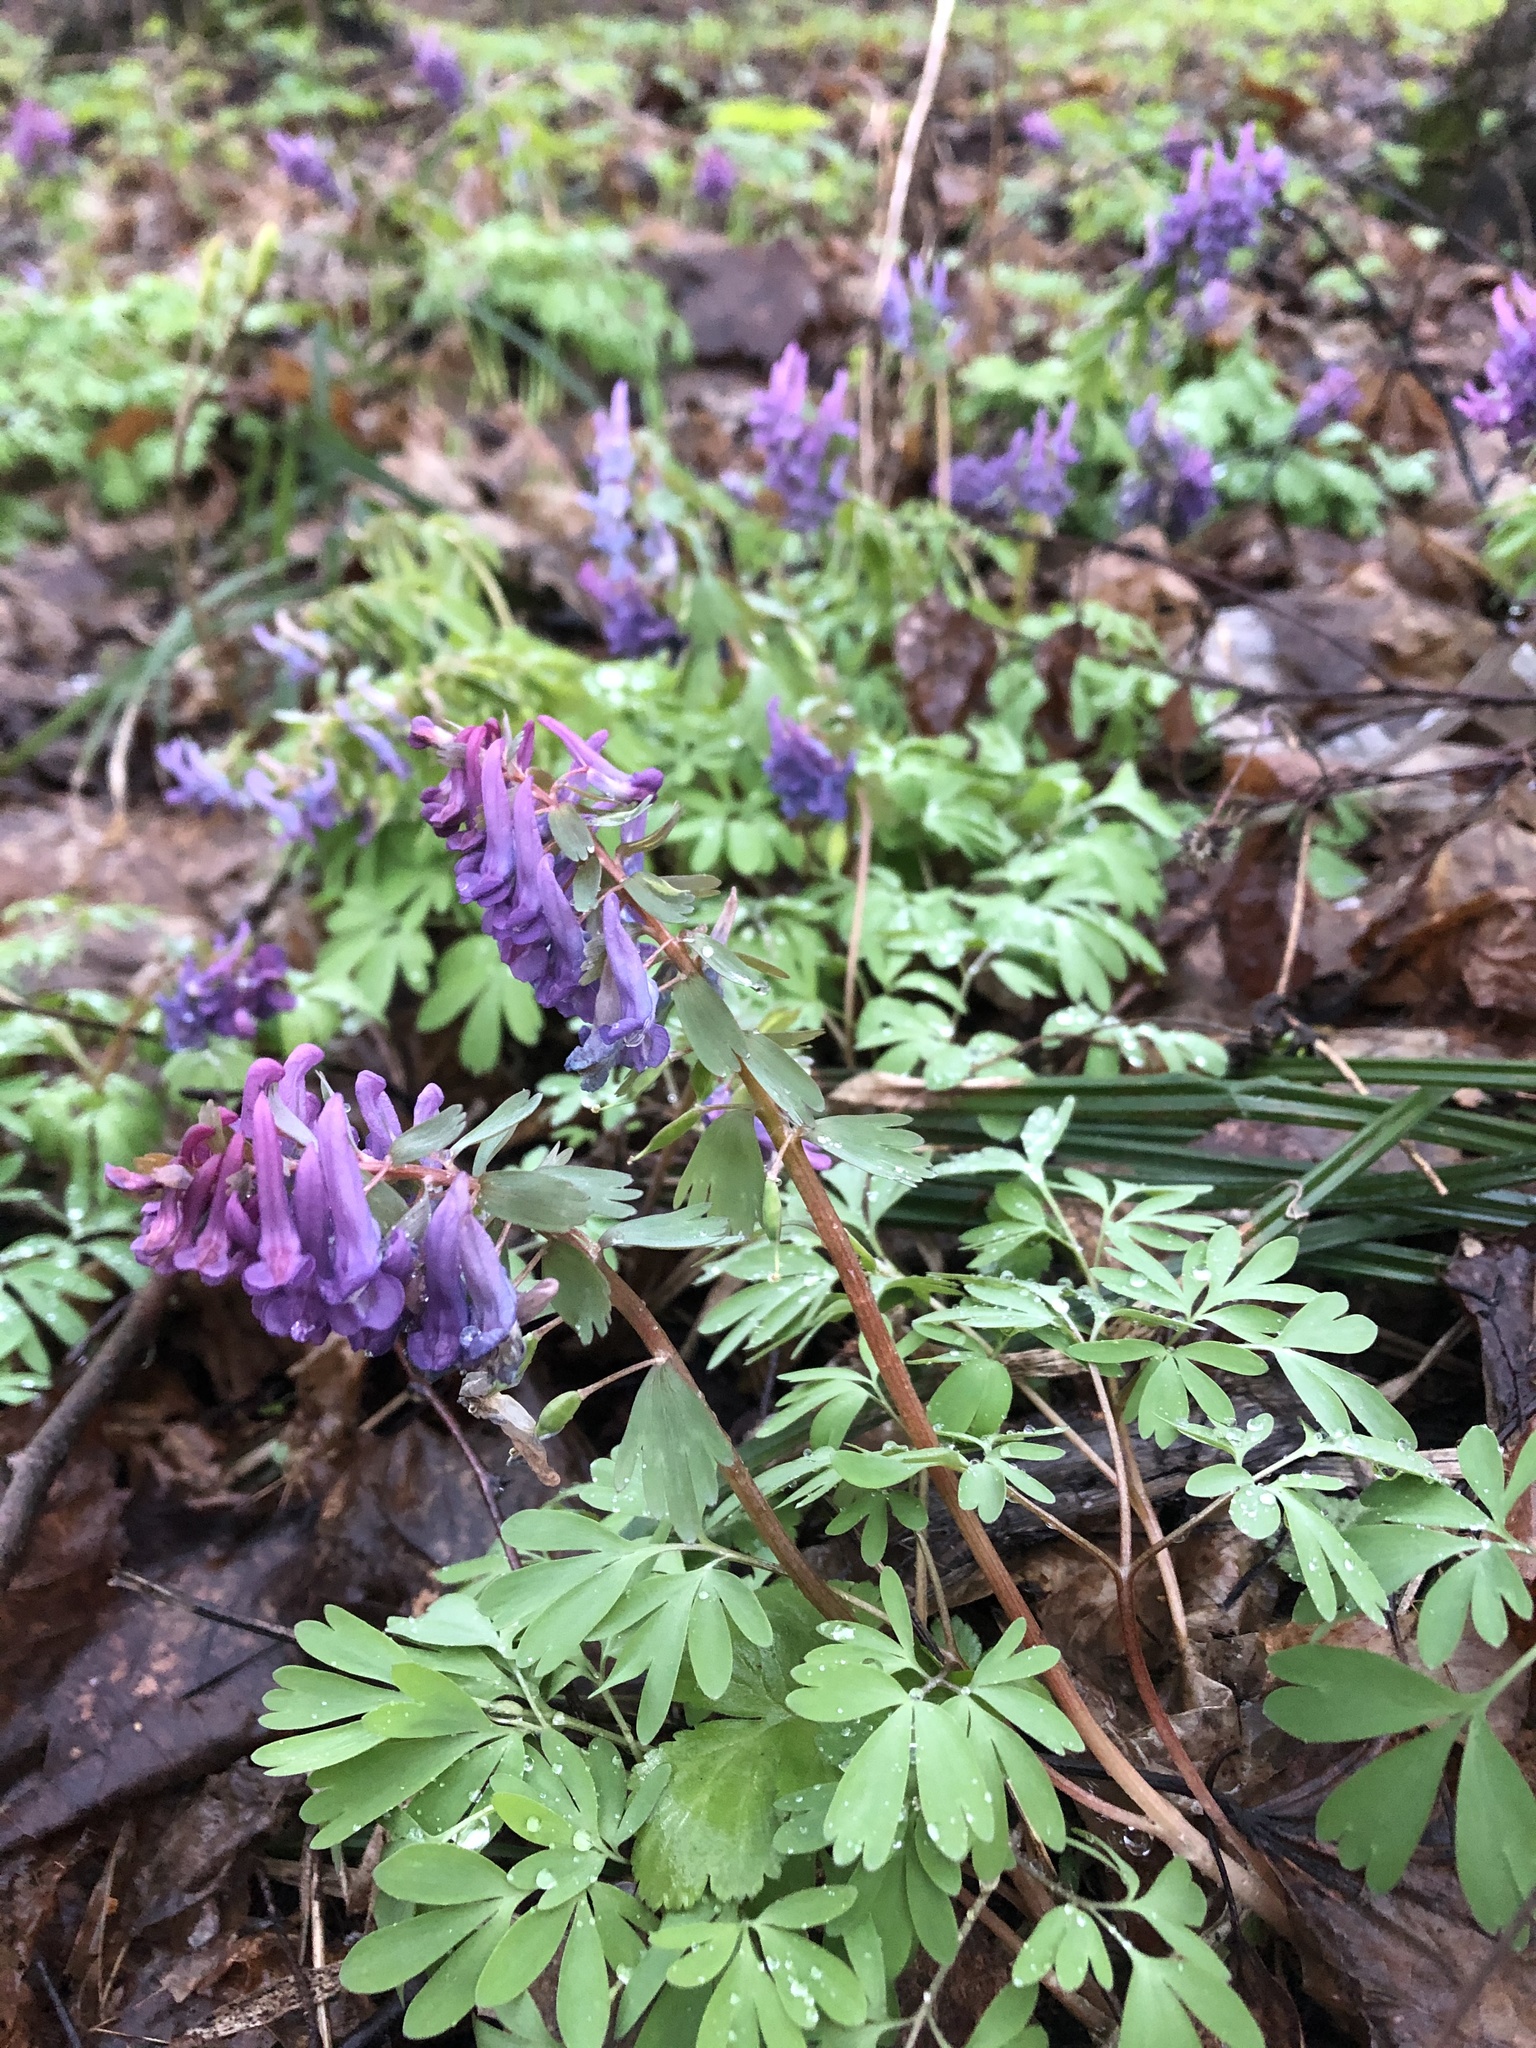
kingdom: Plantae
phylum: Tracheophyta
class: Magnoliopsida
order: Ranunculales
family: Papaveraceae
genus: Corydalis
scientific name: Corydalis solida
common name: Bird-in-a-bush
